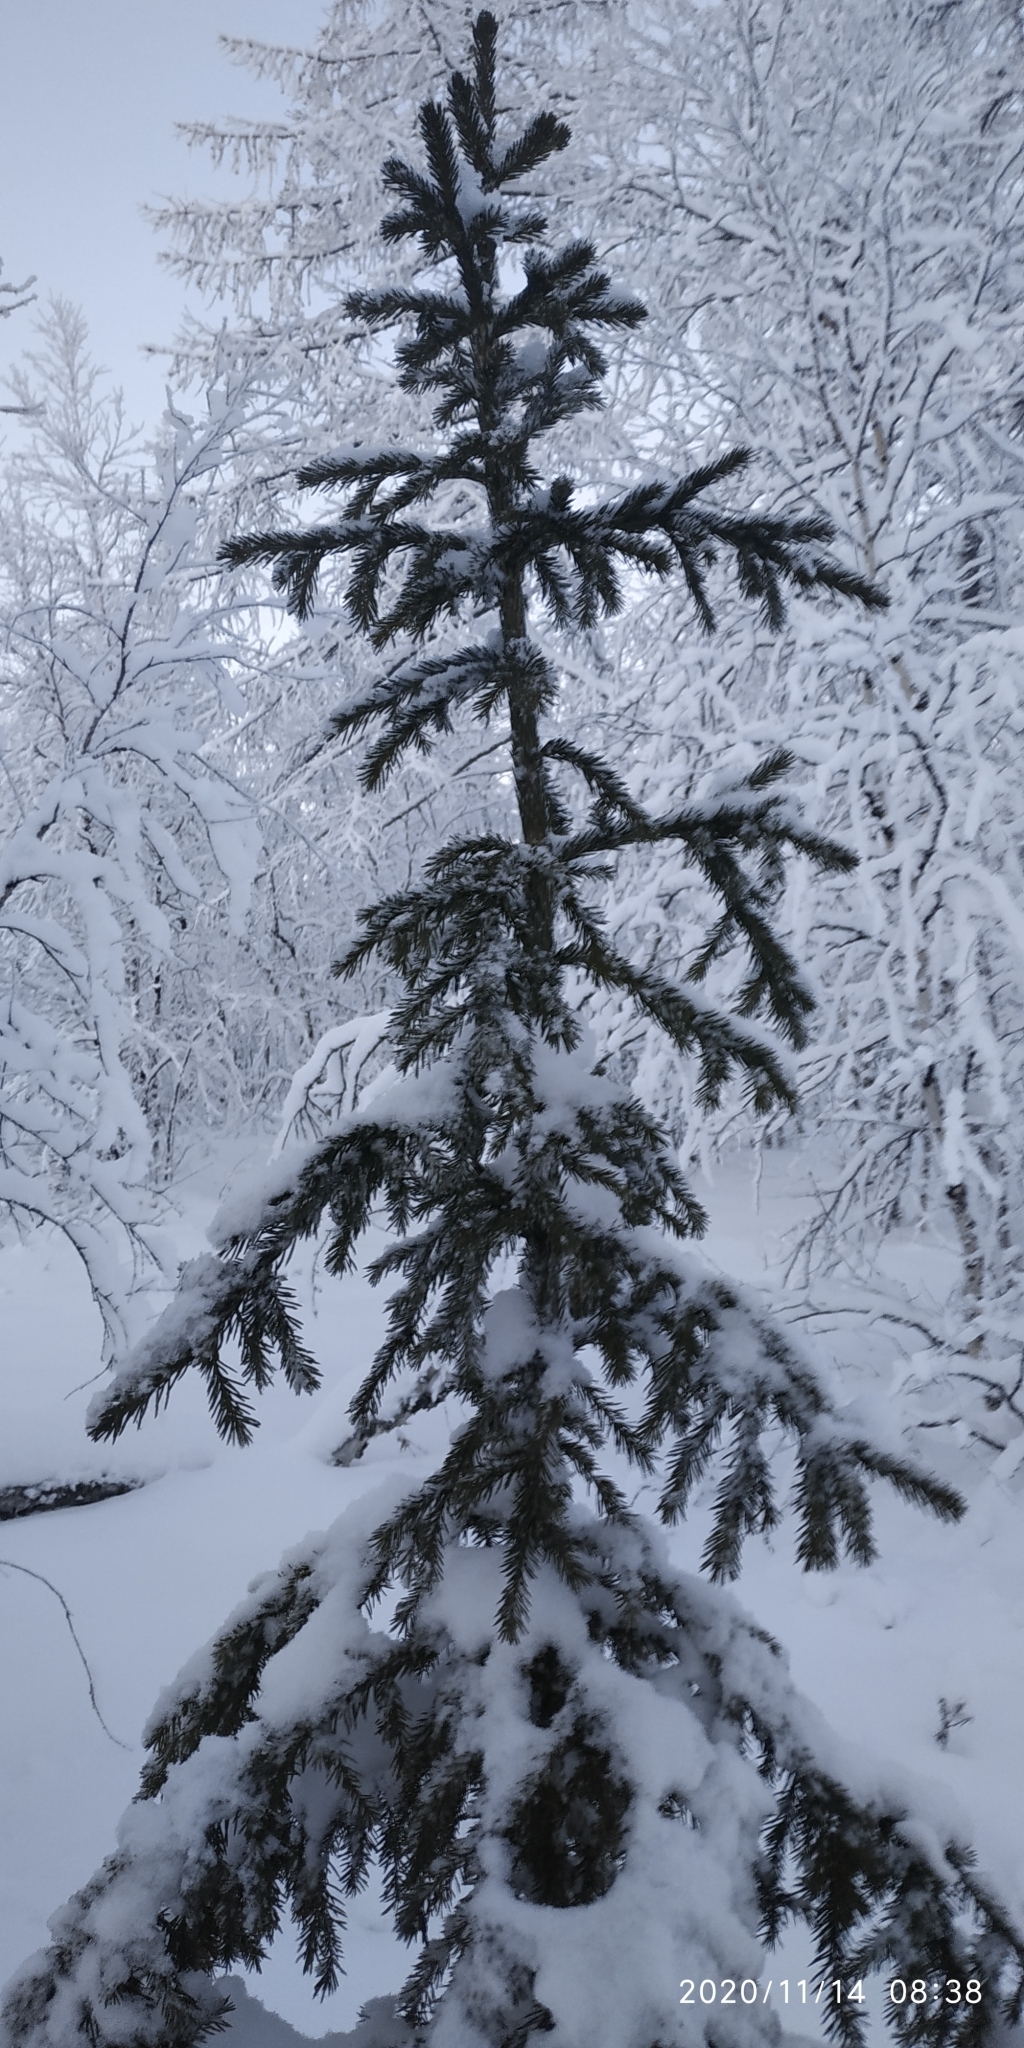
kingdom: Plantae
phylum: Tracheophyta
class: Pinopsida
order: Pinales
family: Pinaceae
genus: Picea
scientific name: Picea obovata
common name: Siberian spruce
